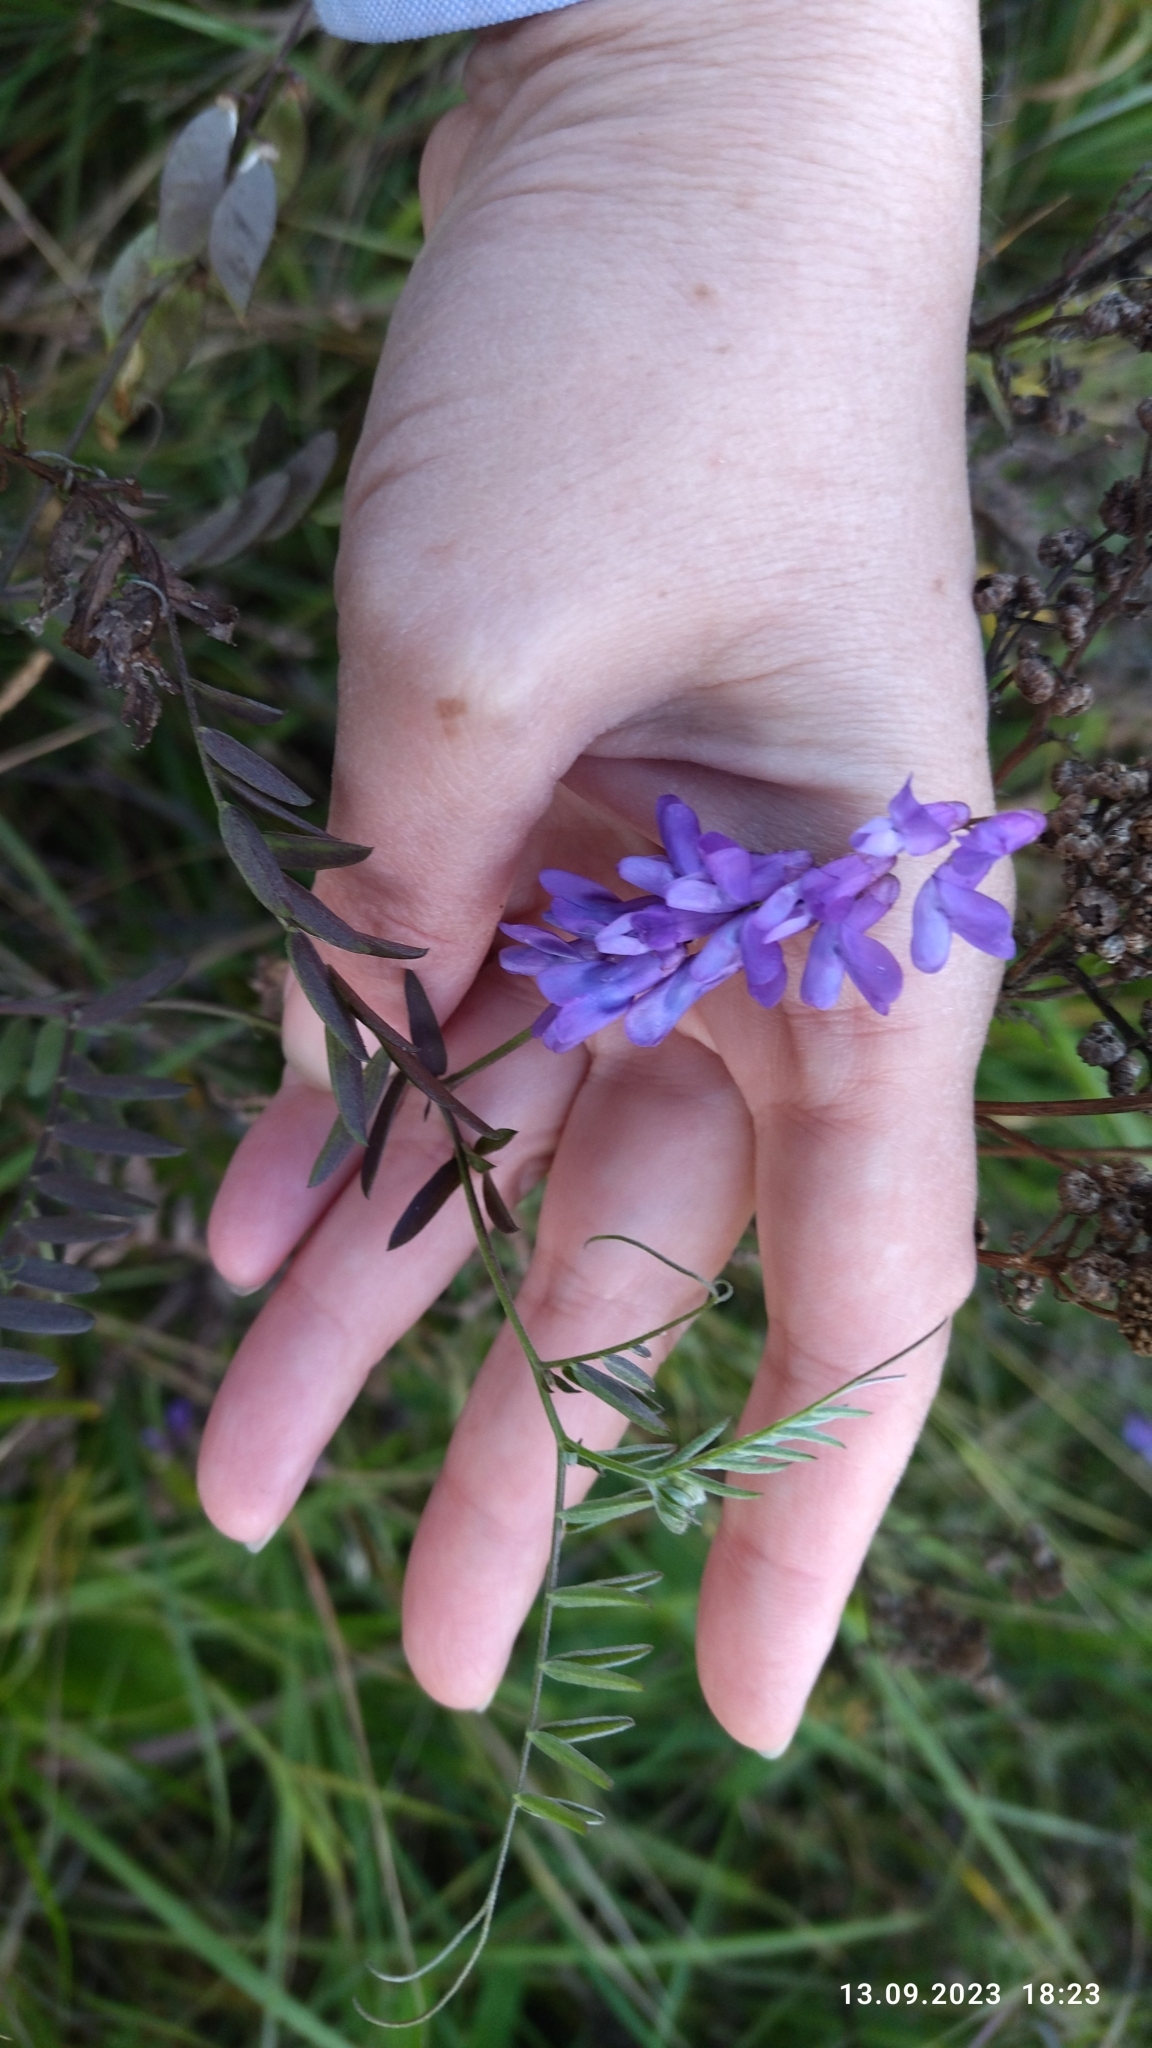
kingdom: Plantae
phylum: Tracheophyta
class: Magnoliopsida
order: Fabales
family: Fabaceae
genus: Vicia
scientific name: Vicia cracca
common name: Bird vetch
